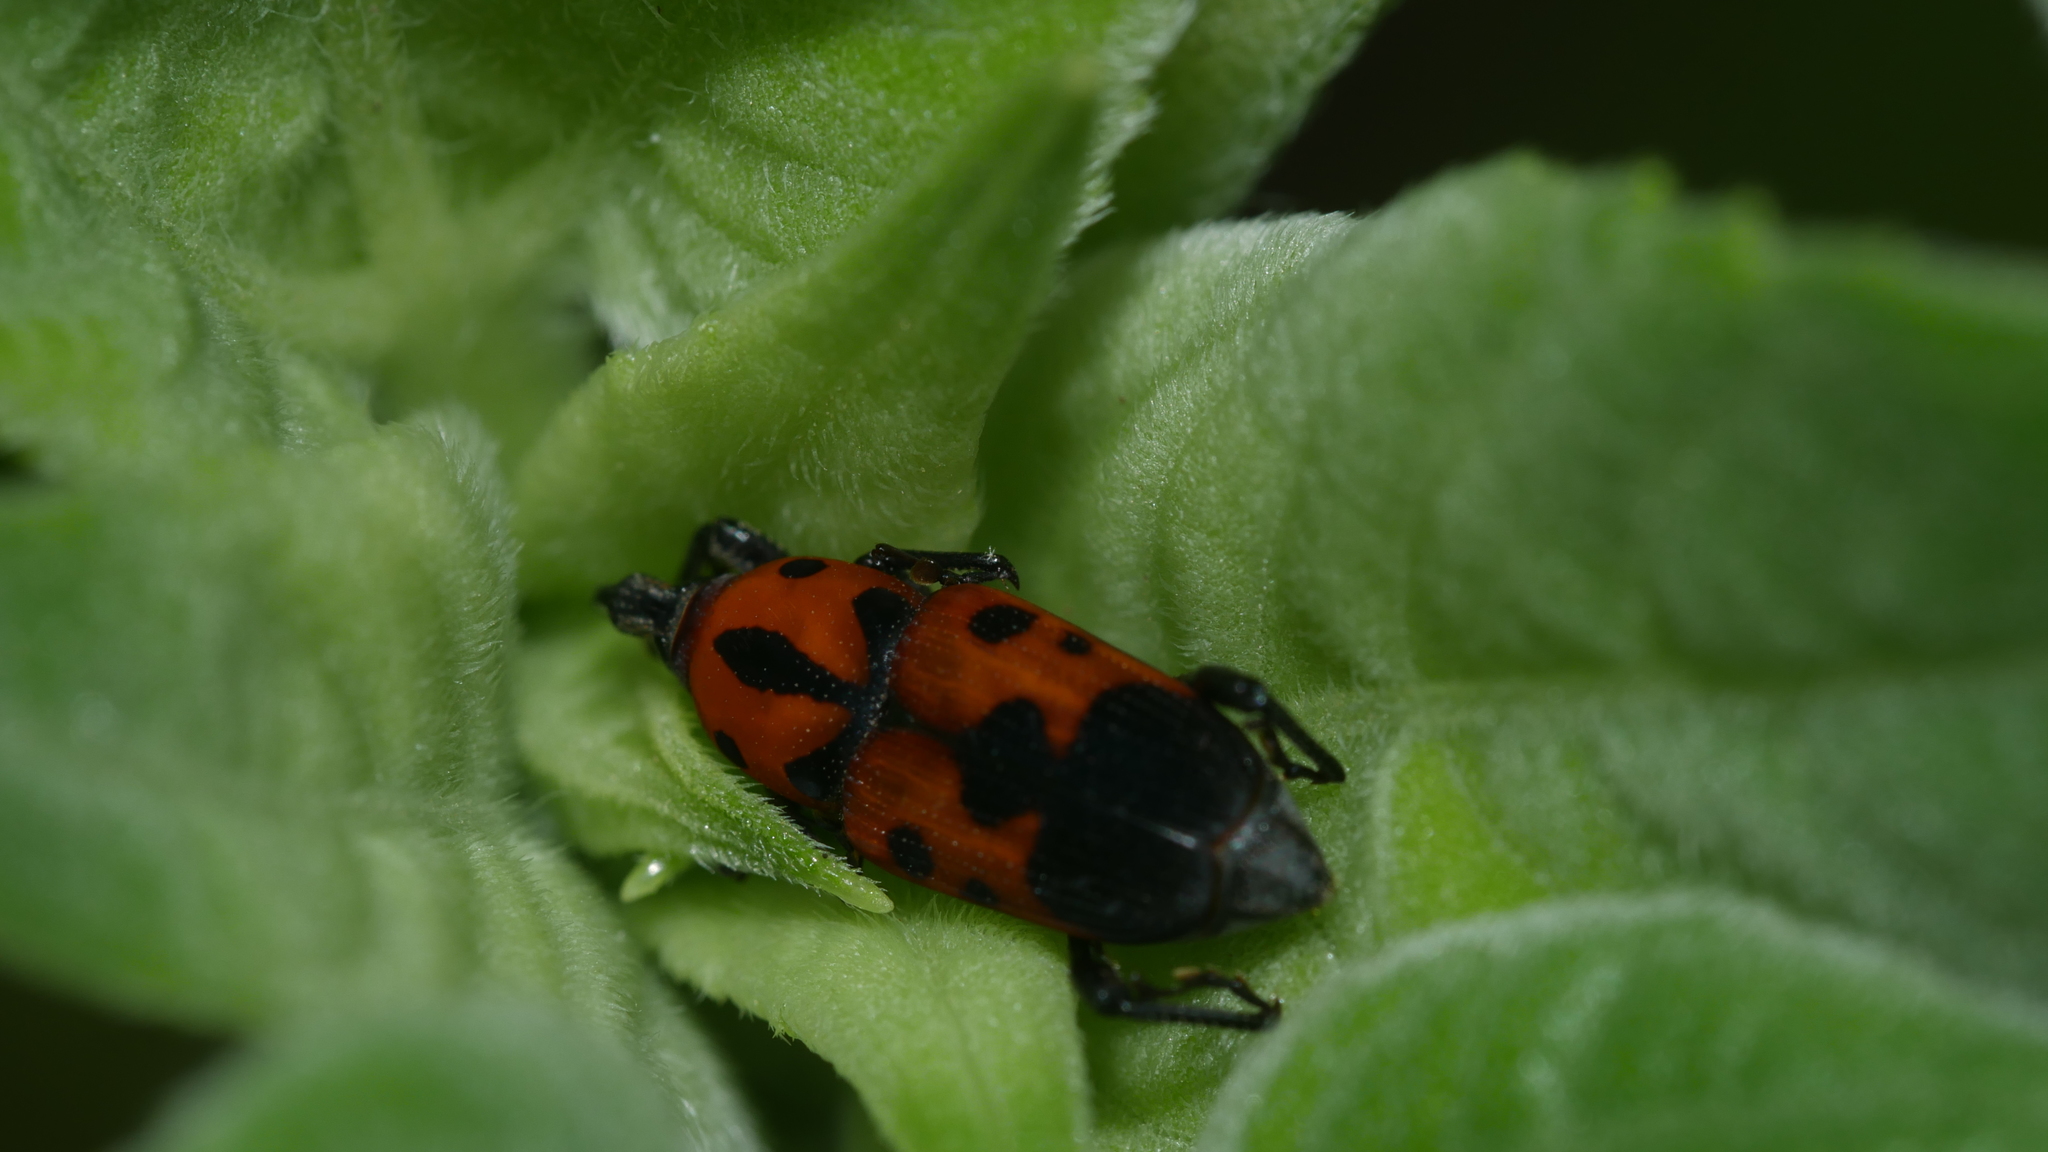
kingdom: Animalia
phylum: Arthropoda
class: Insecta
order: Coleoptera
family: Dryophthoridae
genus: Rhodobaenus
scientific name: Rhodobaenus quinquepunctatus
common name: Cocklebur weevil
